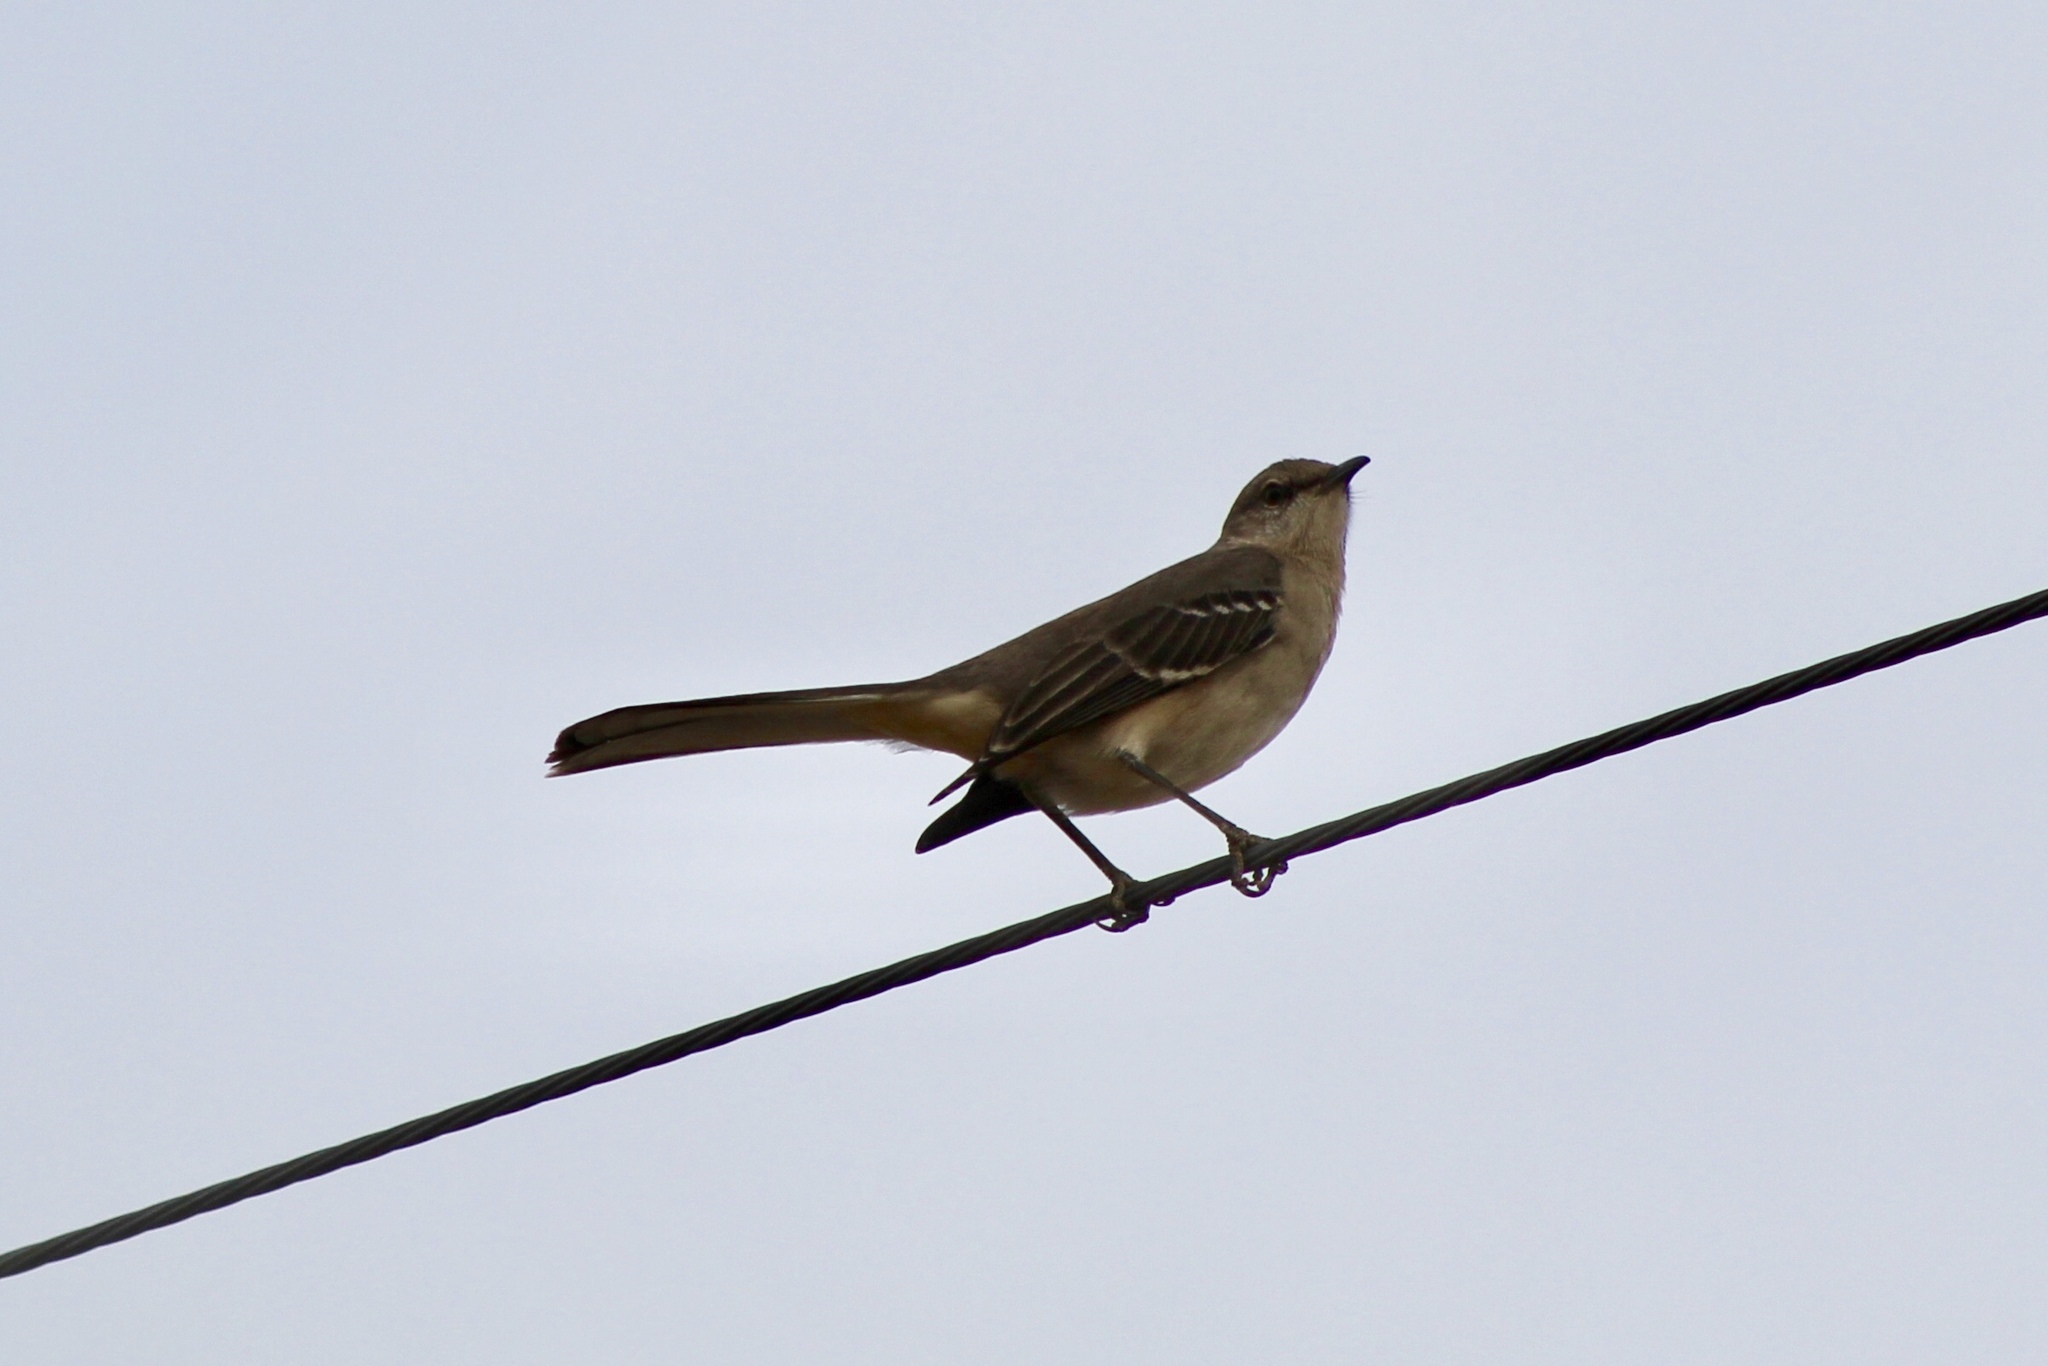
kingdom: Animalia
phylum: Chordata
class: Aves
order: Passeriformes
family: Mimidae
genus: Mimus
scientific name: Mimus polyglottos
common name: Northern mockingbird
